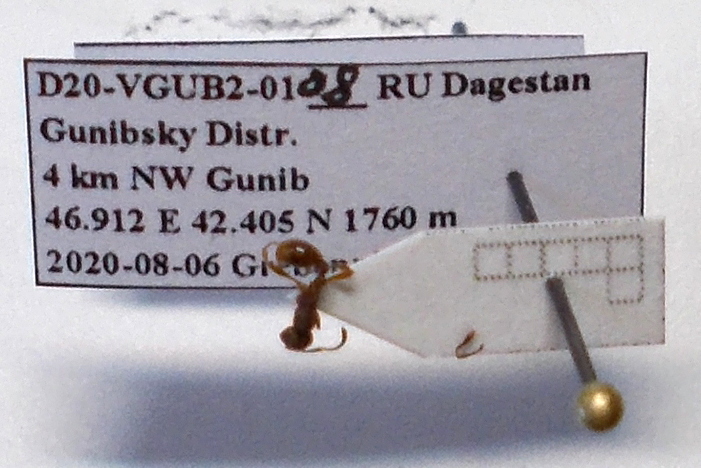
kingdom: Animalia
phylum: Arthropoda
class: Insecta
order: Hymenoptera
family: Formicidae
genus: Myrmica
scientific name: Myrmica hellenica
